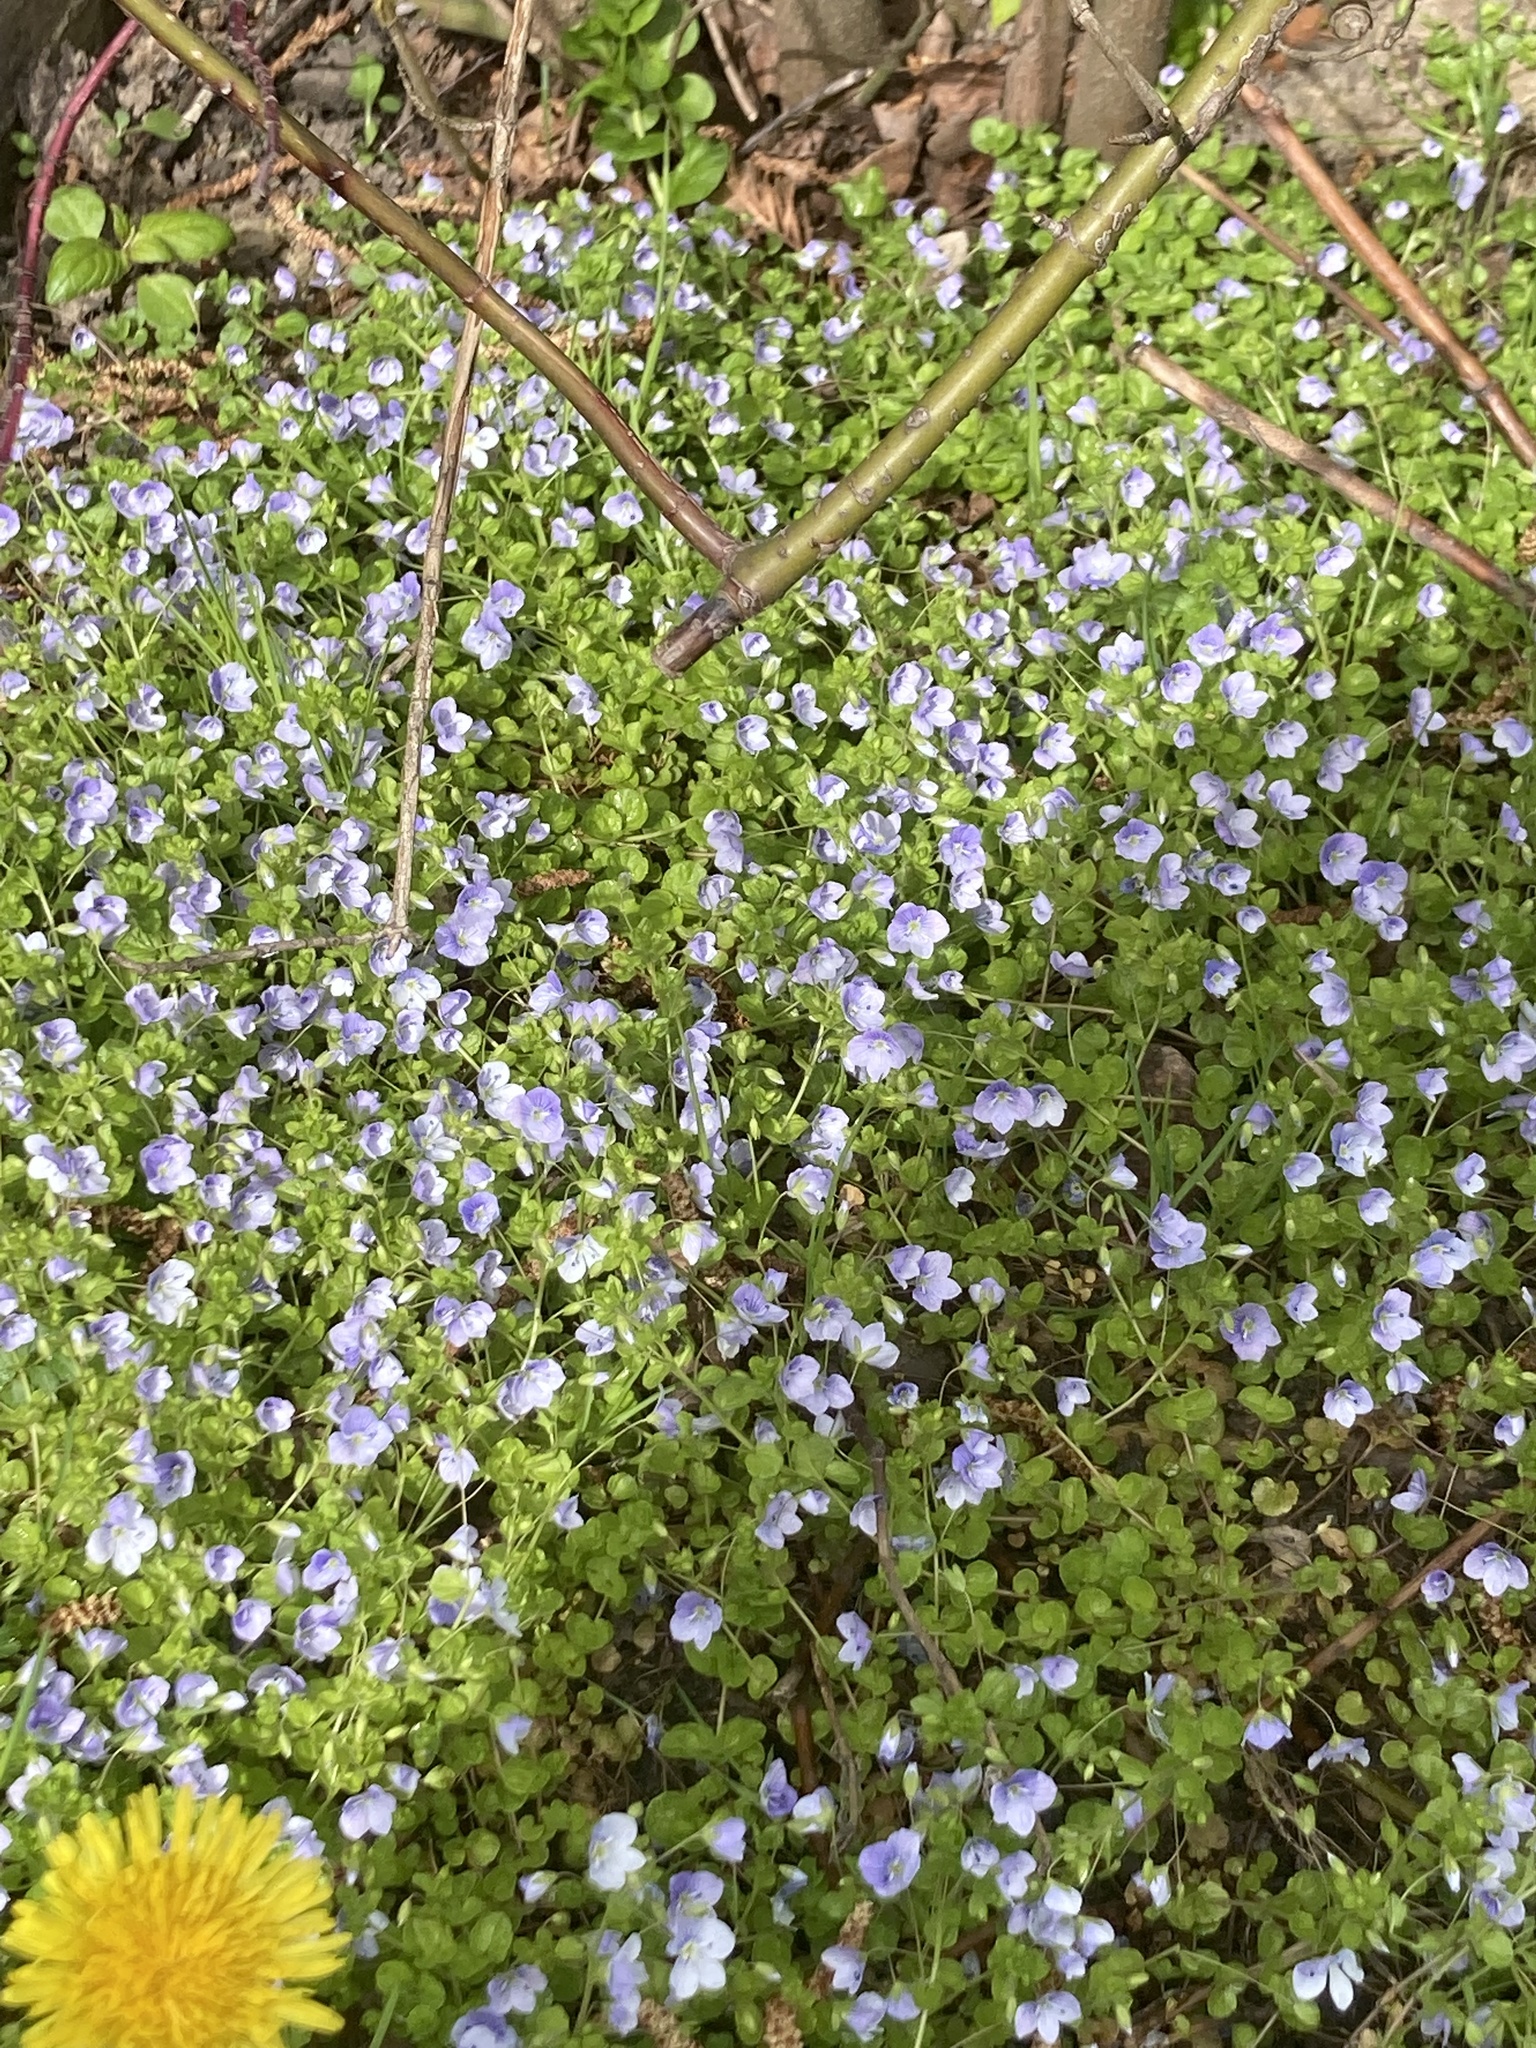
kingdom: Plantae
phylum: Tracheophyta
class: Magnoliopsida
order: Lamiales
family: Plantaginaceae
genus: Veronica
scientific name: Veronica filiformis
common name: Slender speedwell
